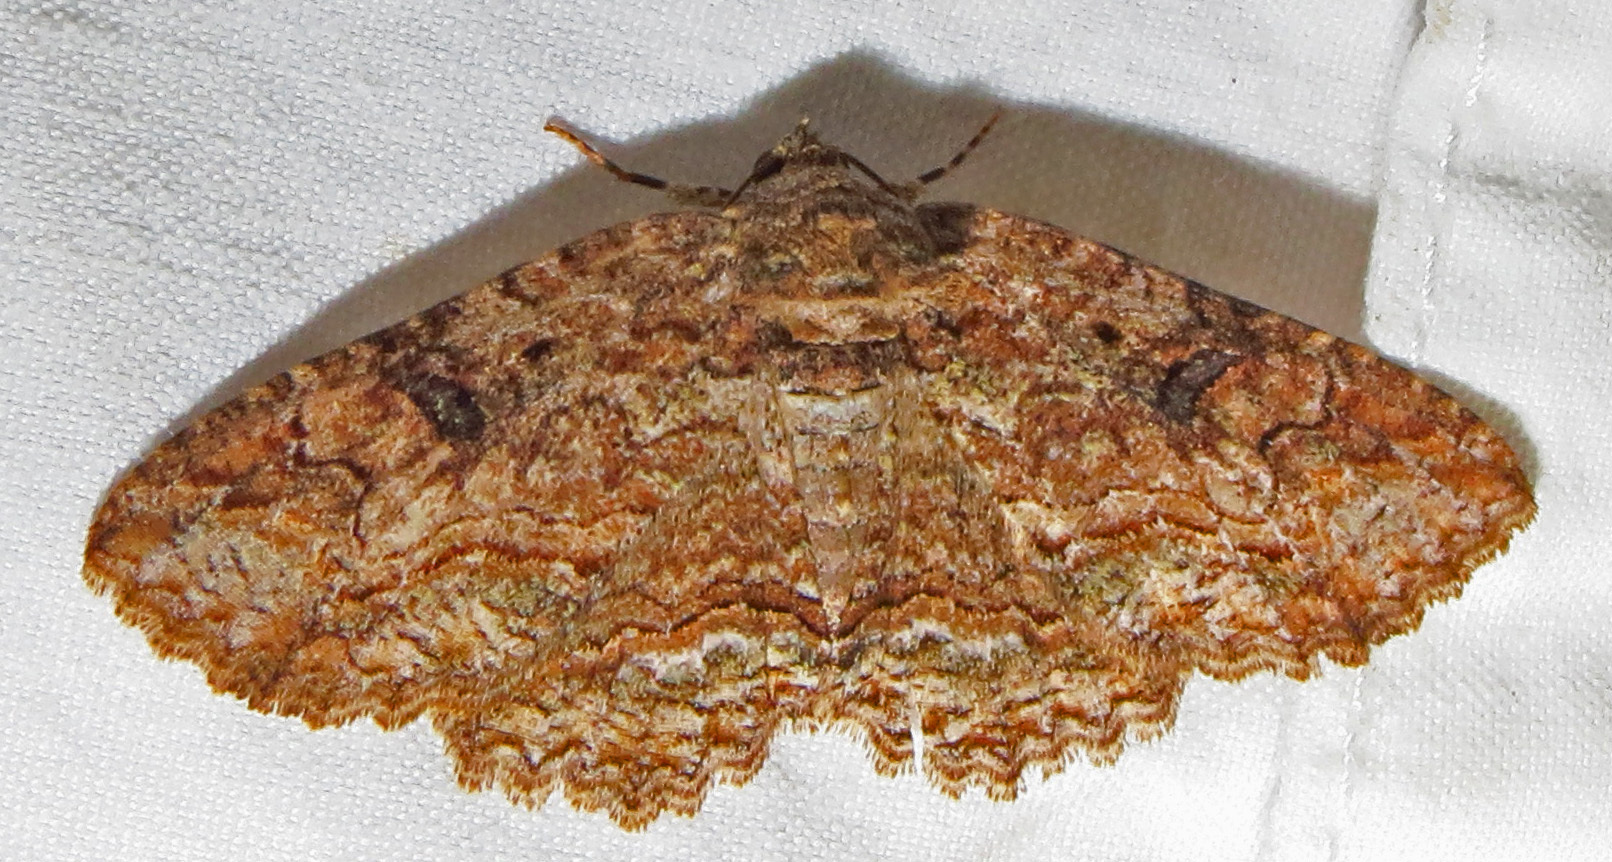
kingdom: Animalia
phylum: Arthropoda
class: Insecta
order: Lepidoptera
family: Erebidae
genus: Zale
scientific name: Zale galbanata
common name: Maple zale
